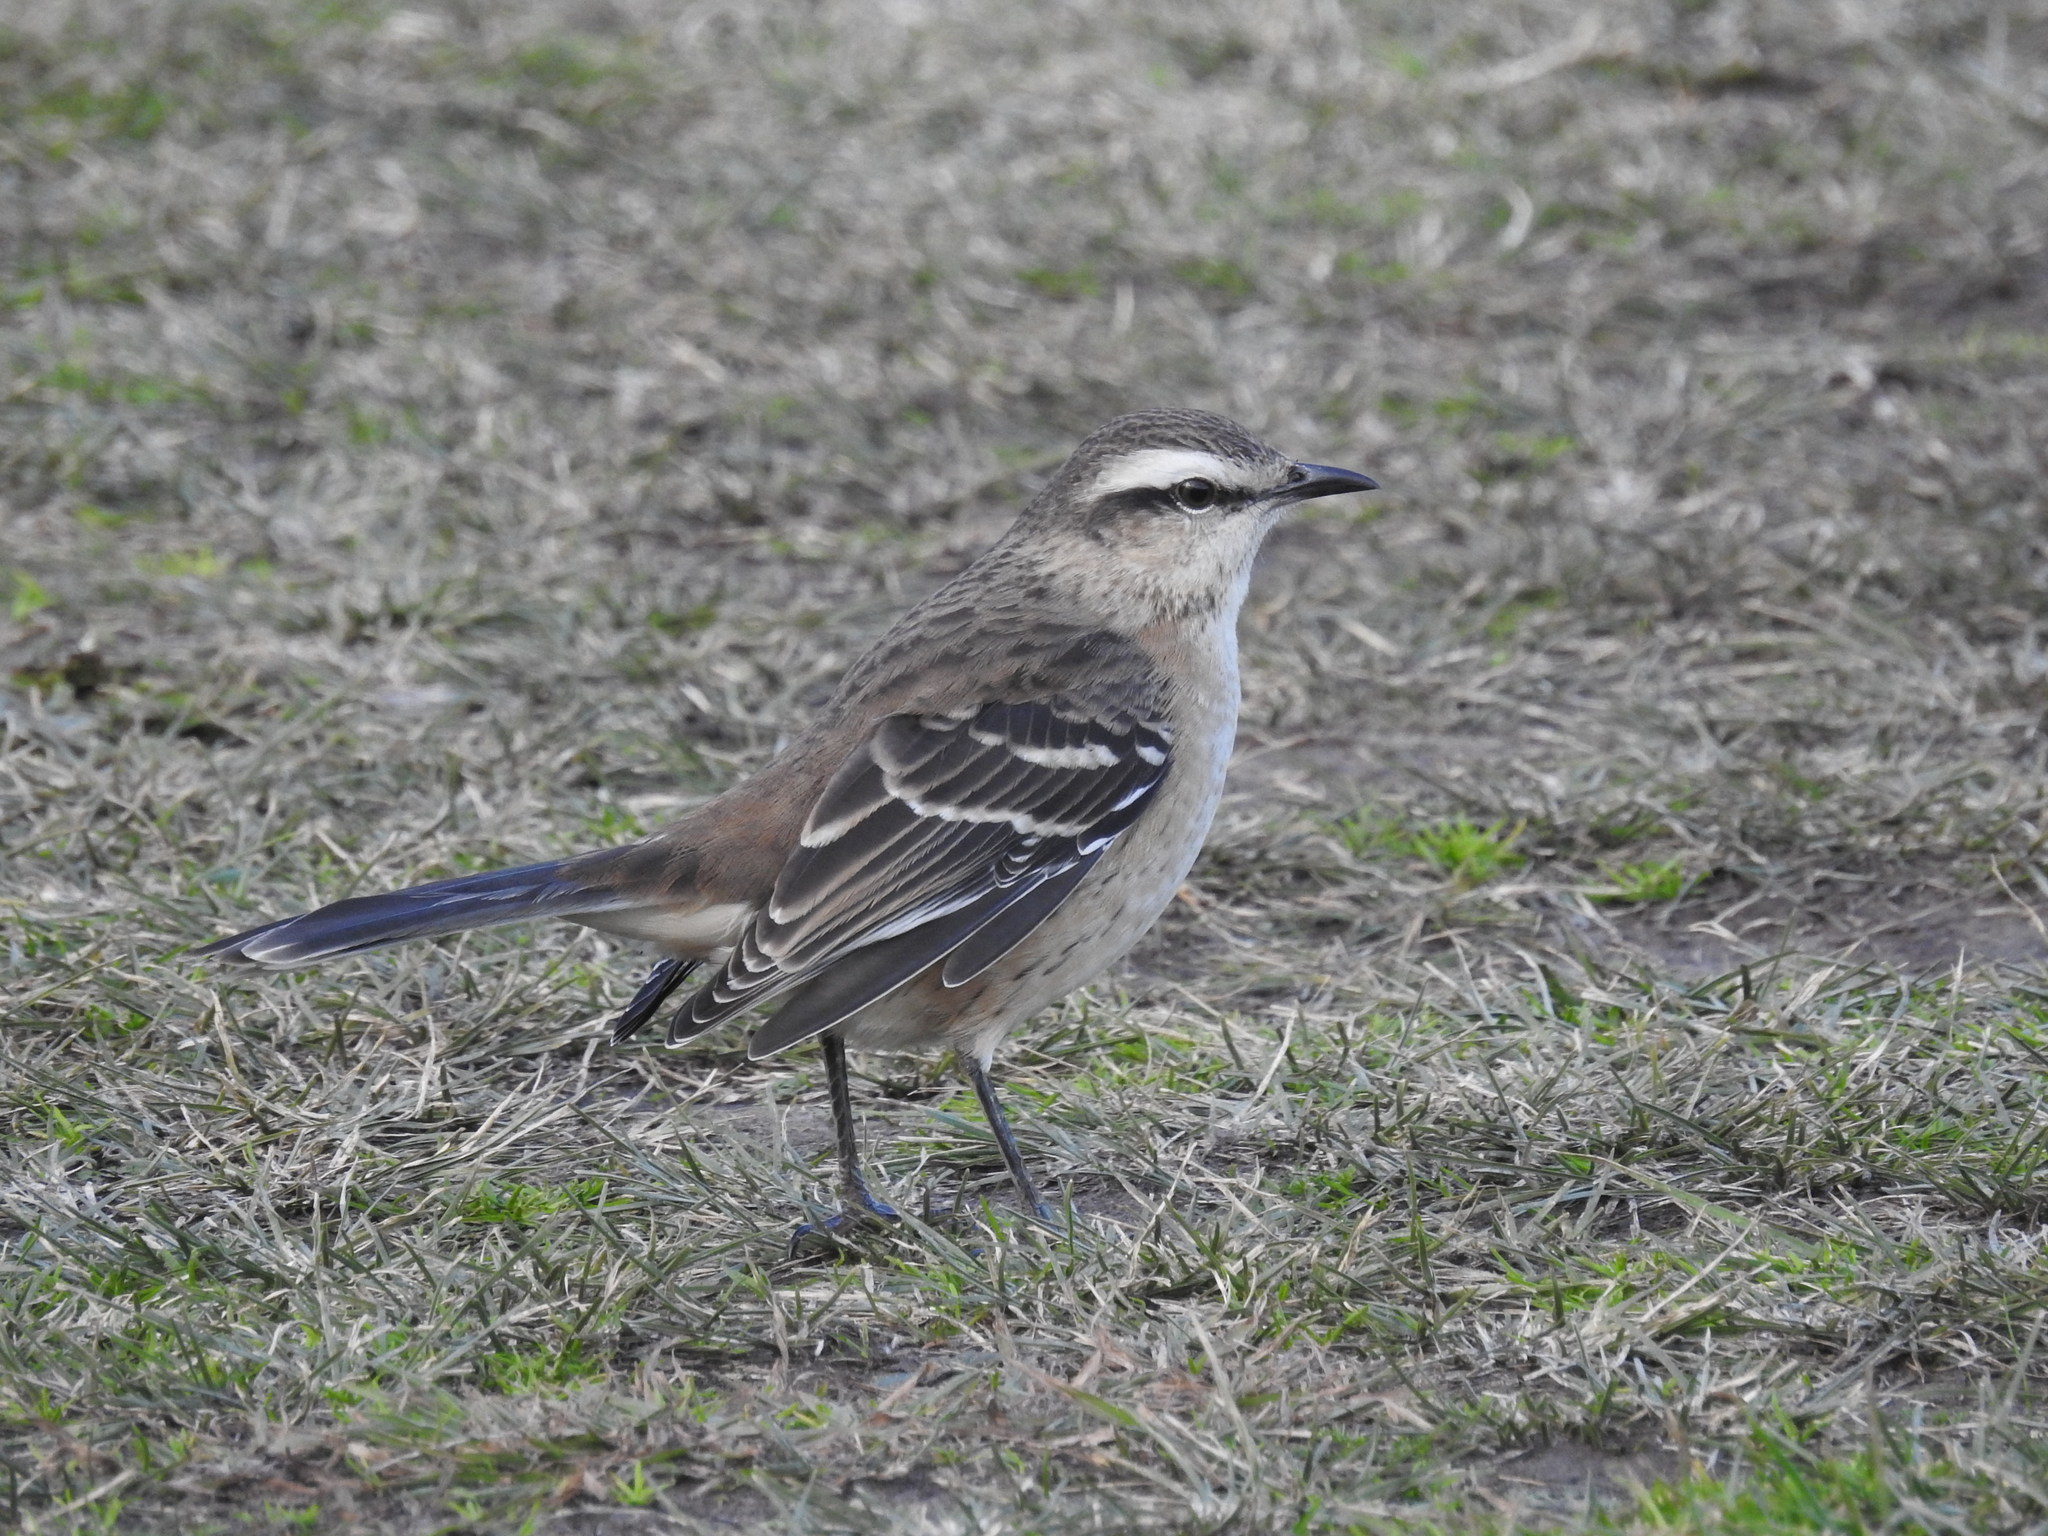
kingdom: Animalia
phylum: Chordata
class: Aves
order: Passeriformes
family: Mimidae
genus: Mimus
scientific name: Mimus saturninus
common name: Chalk-browed mockingbird
